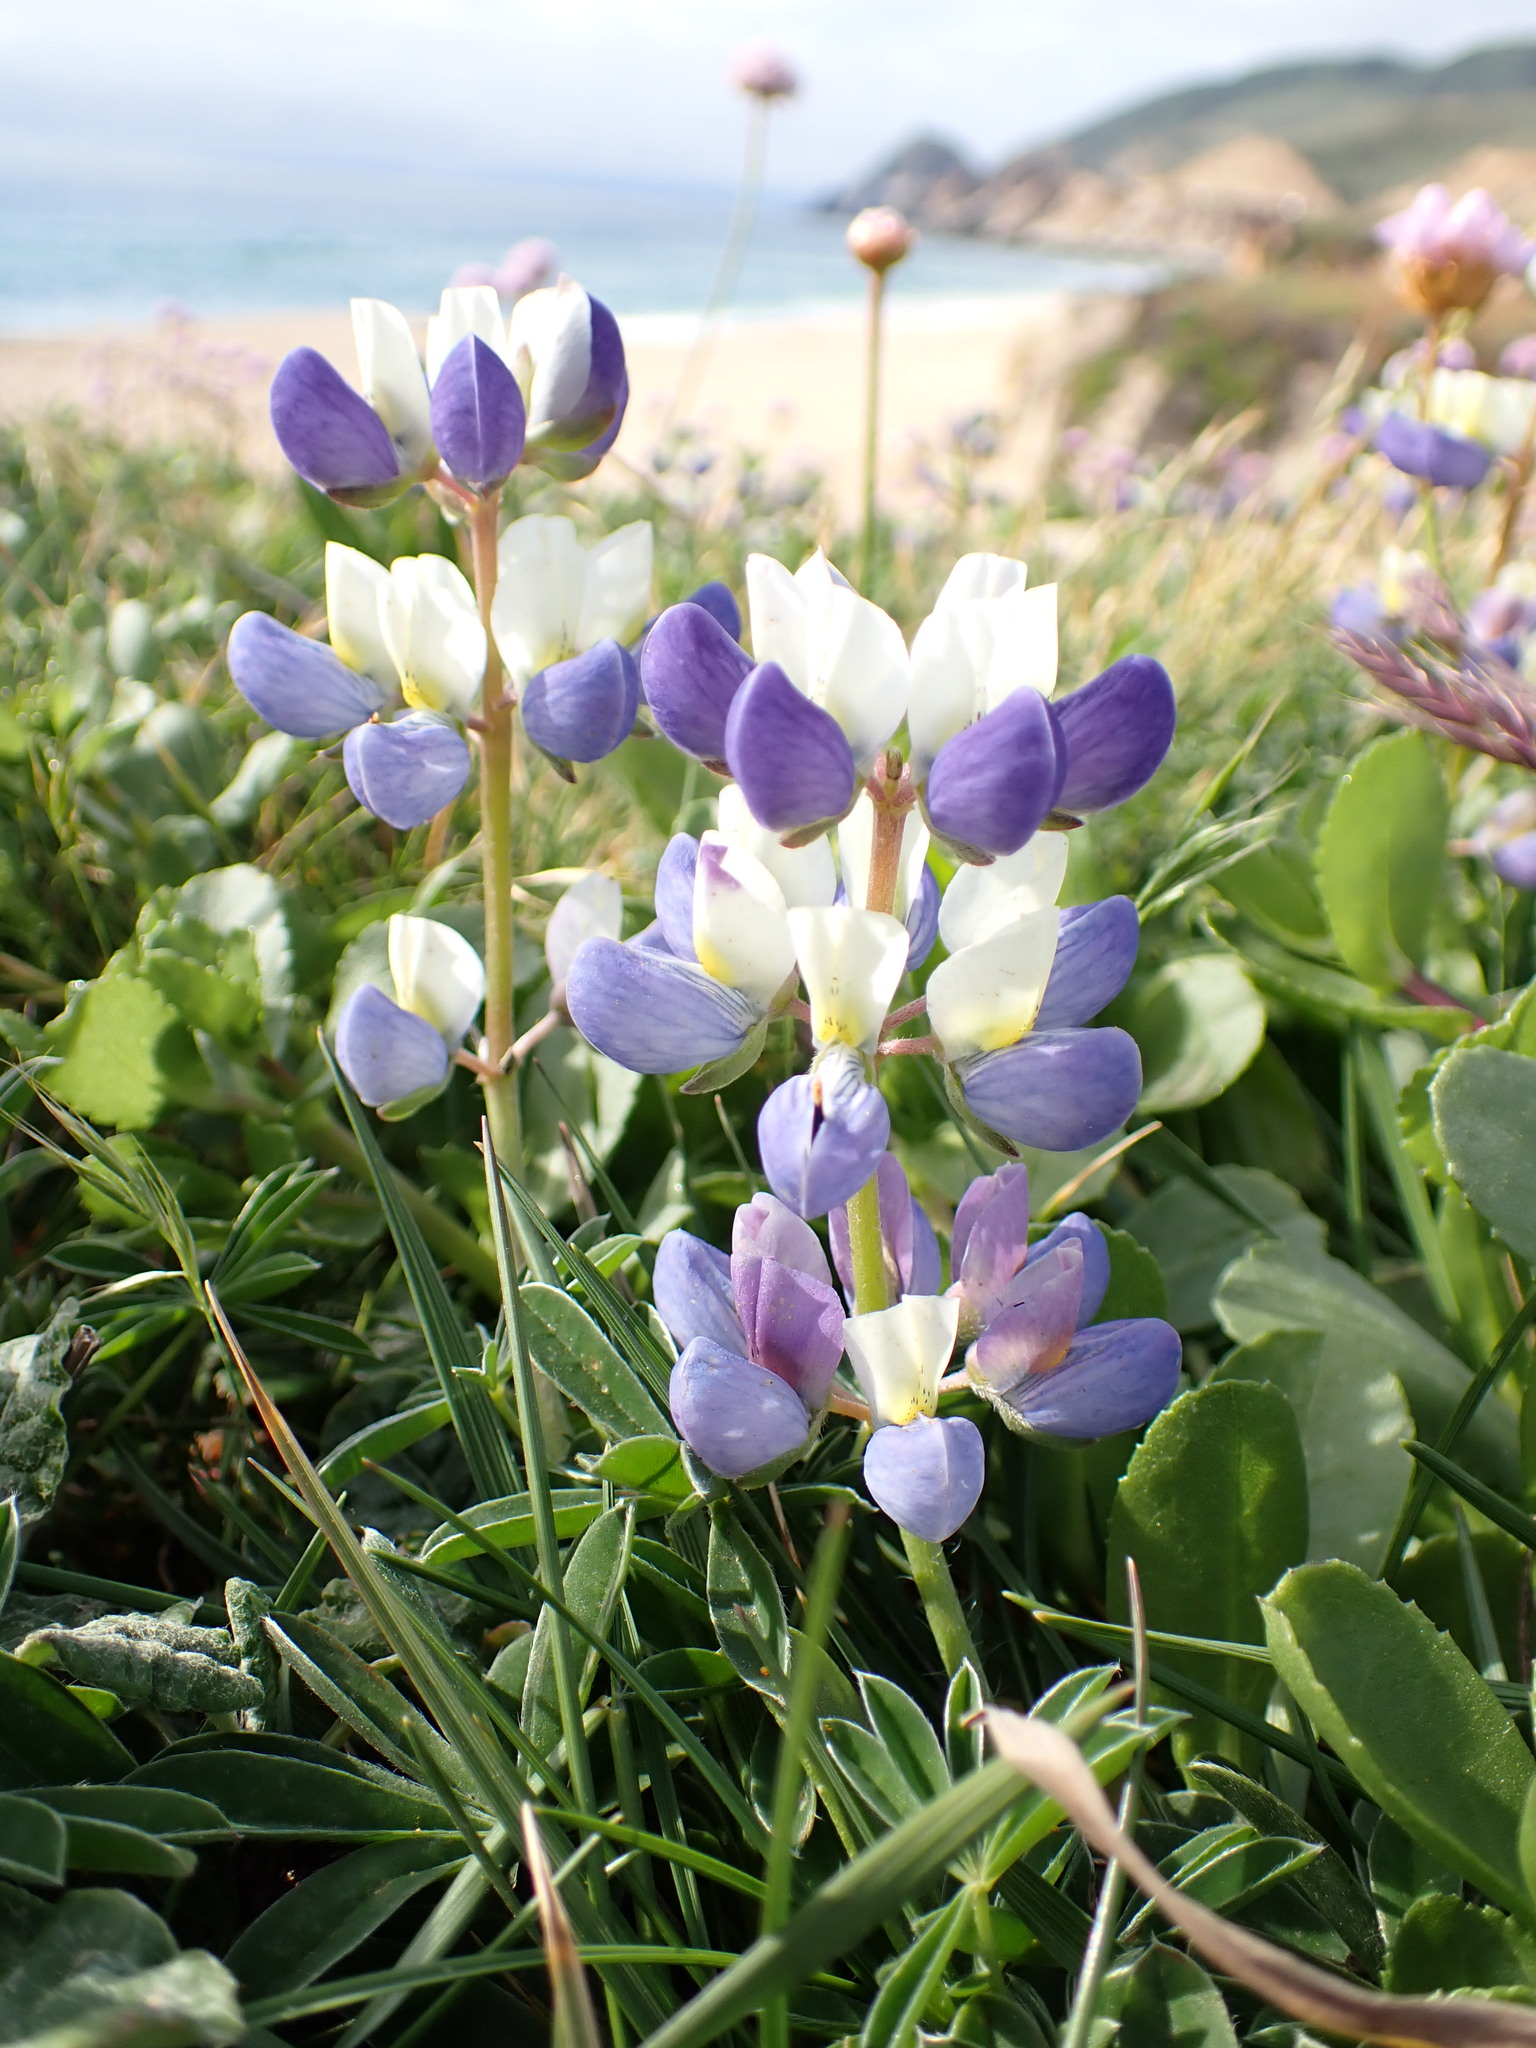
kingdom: Plantae
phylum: Tracheophyta
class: Magnoliopsida
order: Fabales
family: Fabaceae
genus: Lupinus
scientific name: Lupinus variicolor
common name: Lindley's varied lupine
